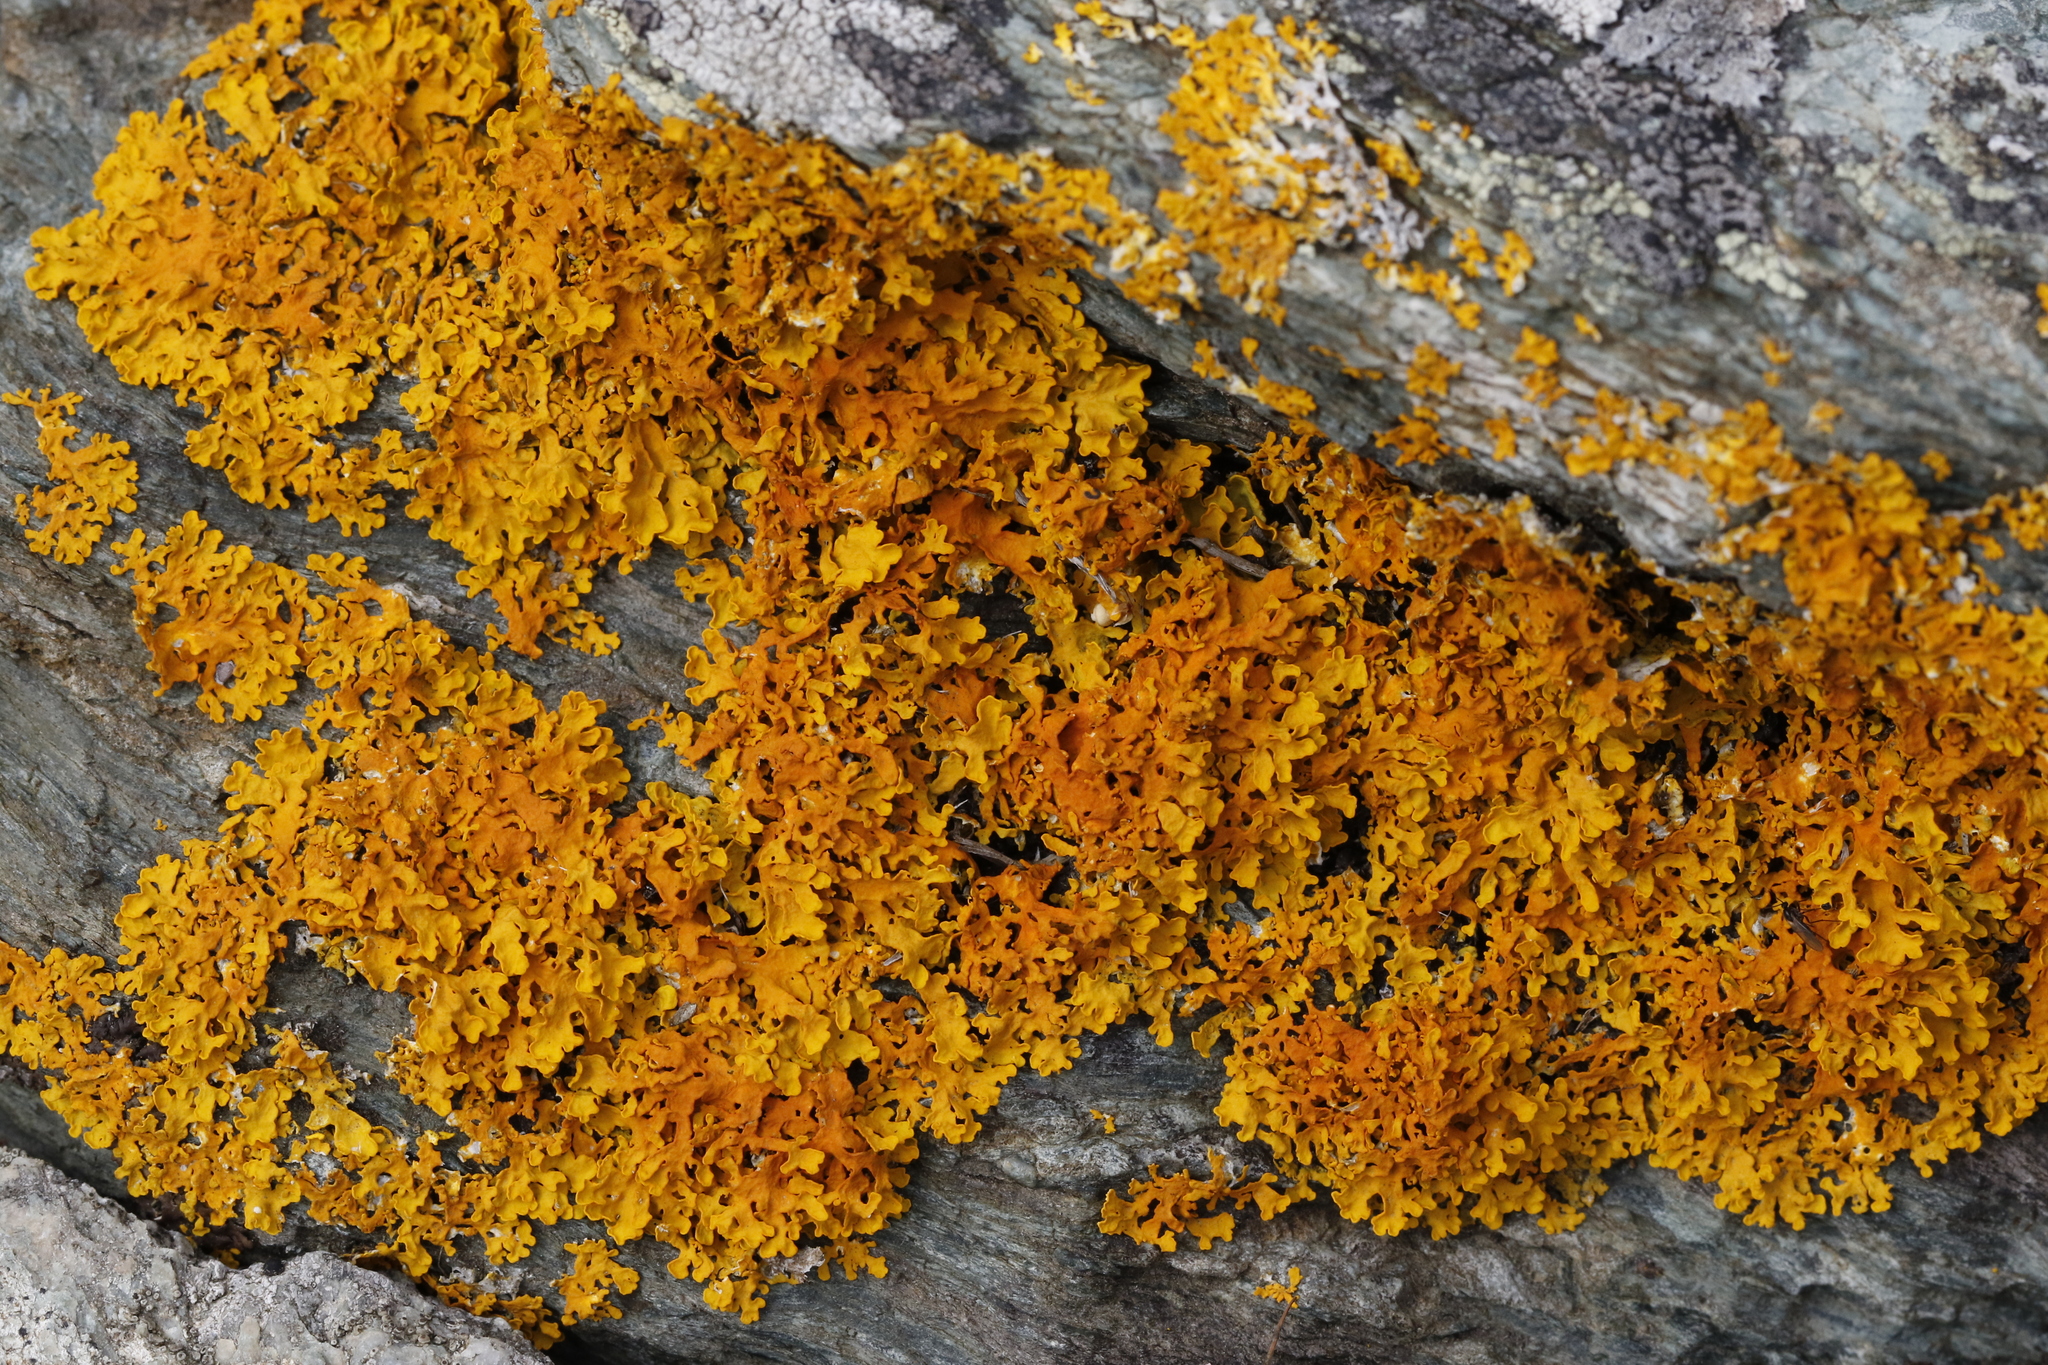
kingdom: Fungi
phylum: Ascomycota
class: Lecanoromycetes
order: Teloschistales
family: Teloschistaceae
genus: Xanthoria
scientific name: Xanthoria aureola
